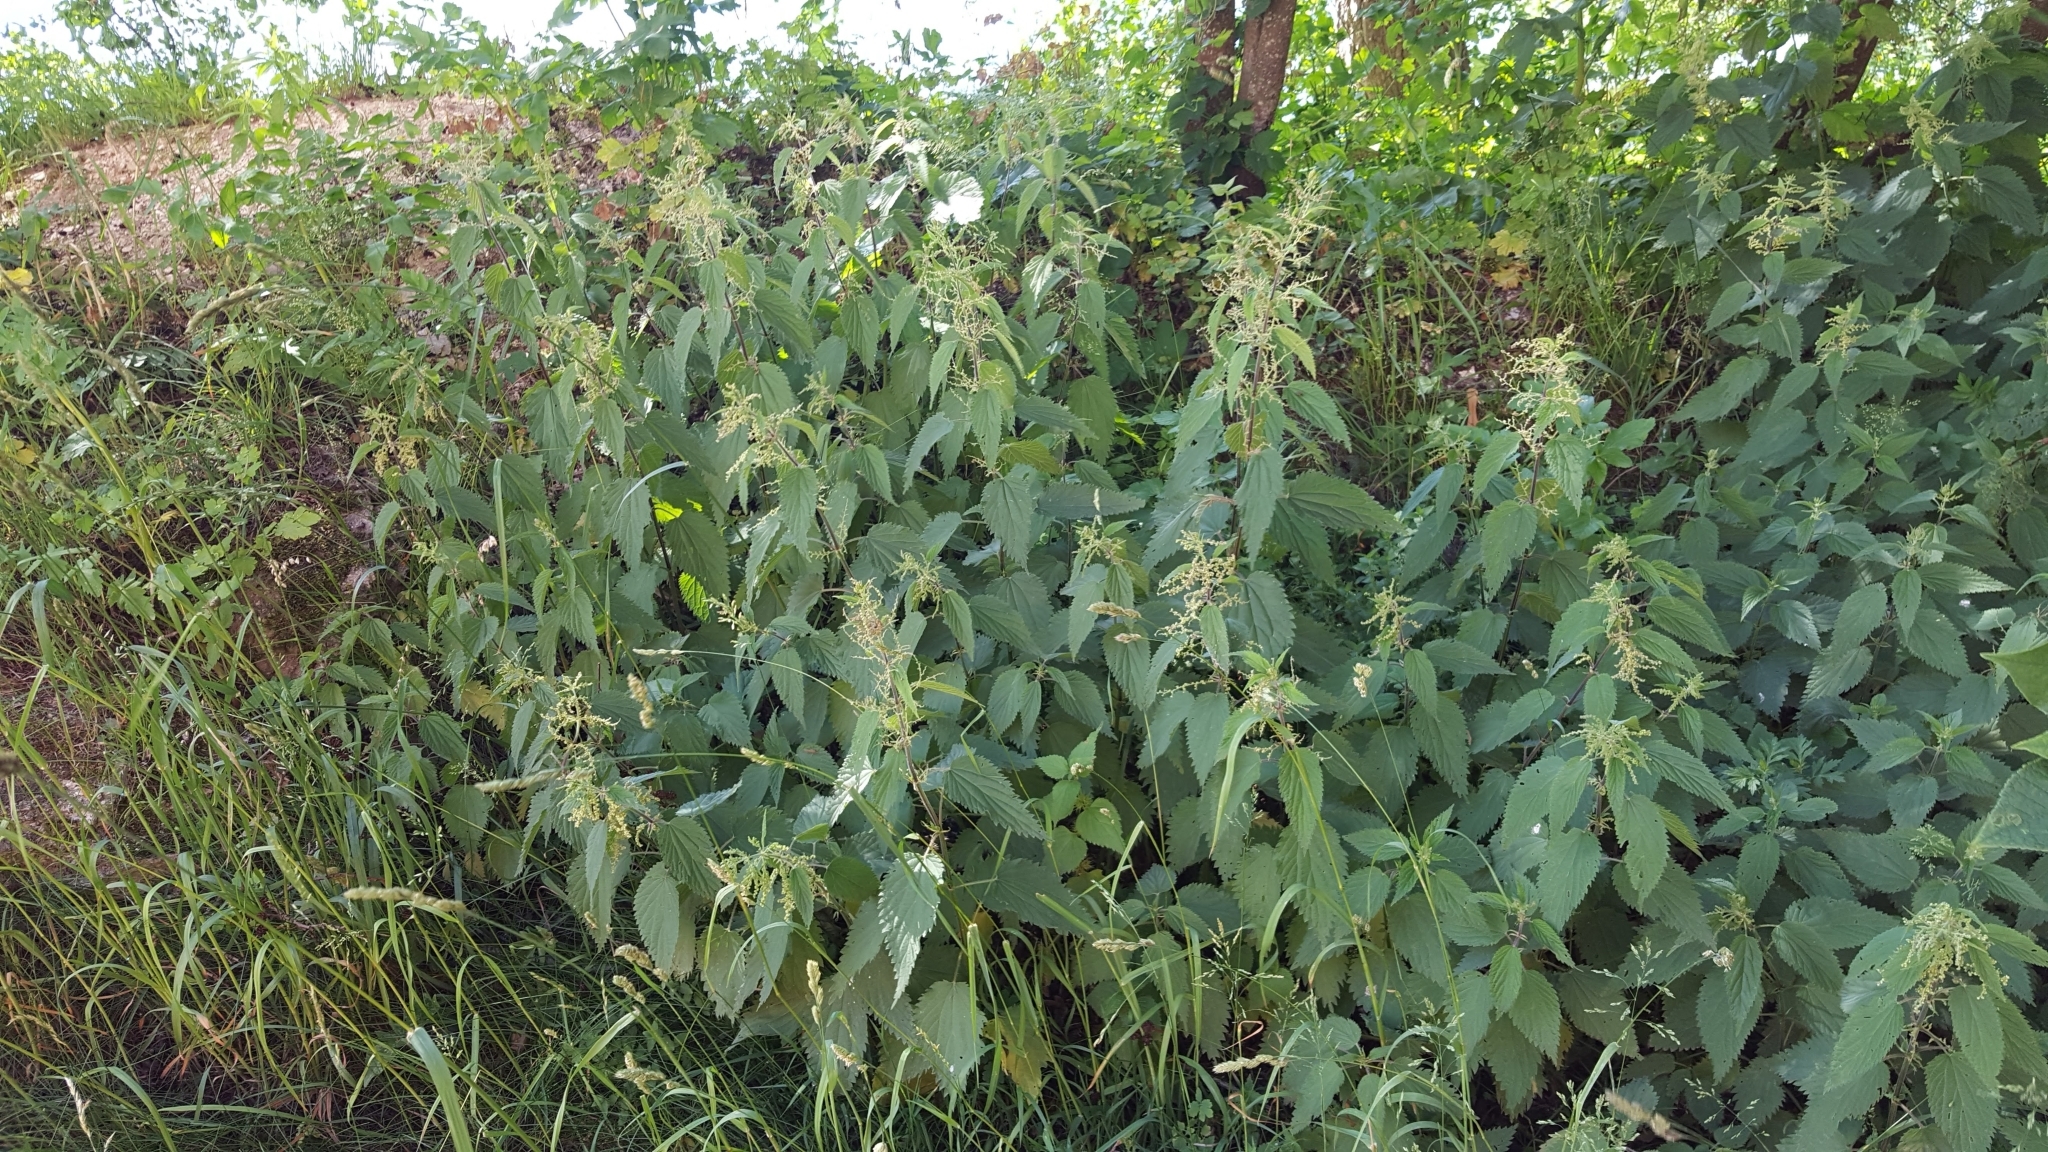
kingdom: Plantae
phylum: Tracheophyta
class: Magnoliopsida
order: Rosales
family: Urticaceae
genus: Urtica
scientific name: Urtica dioica
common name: Common nettle
